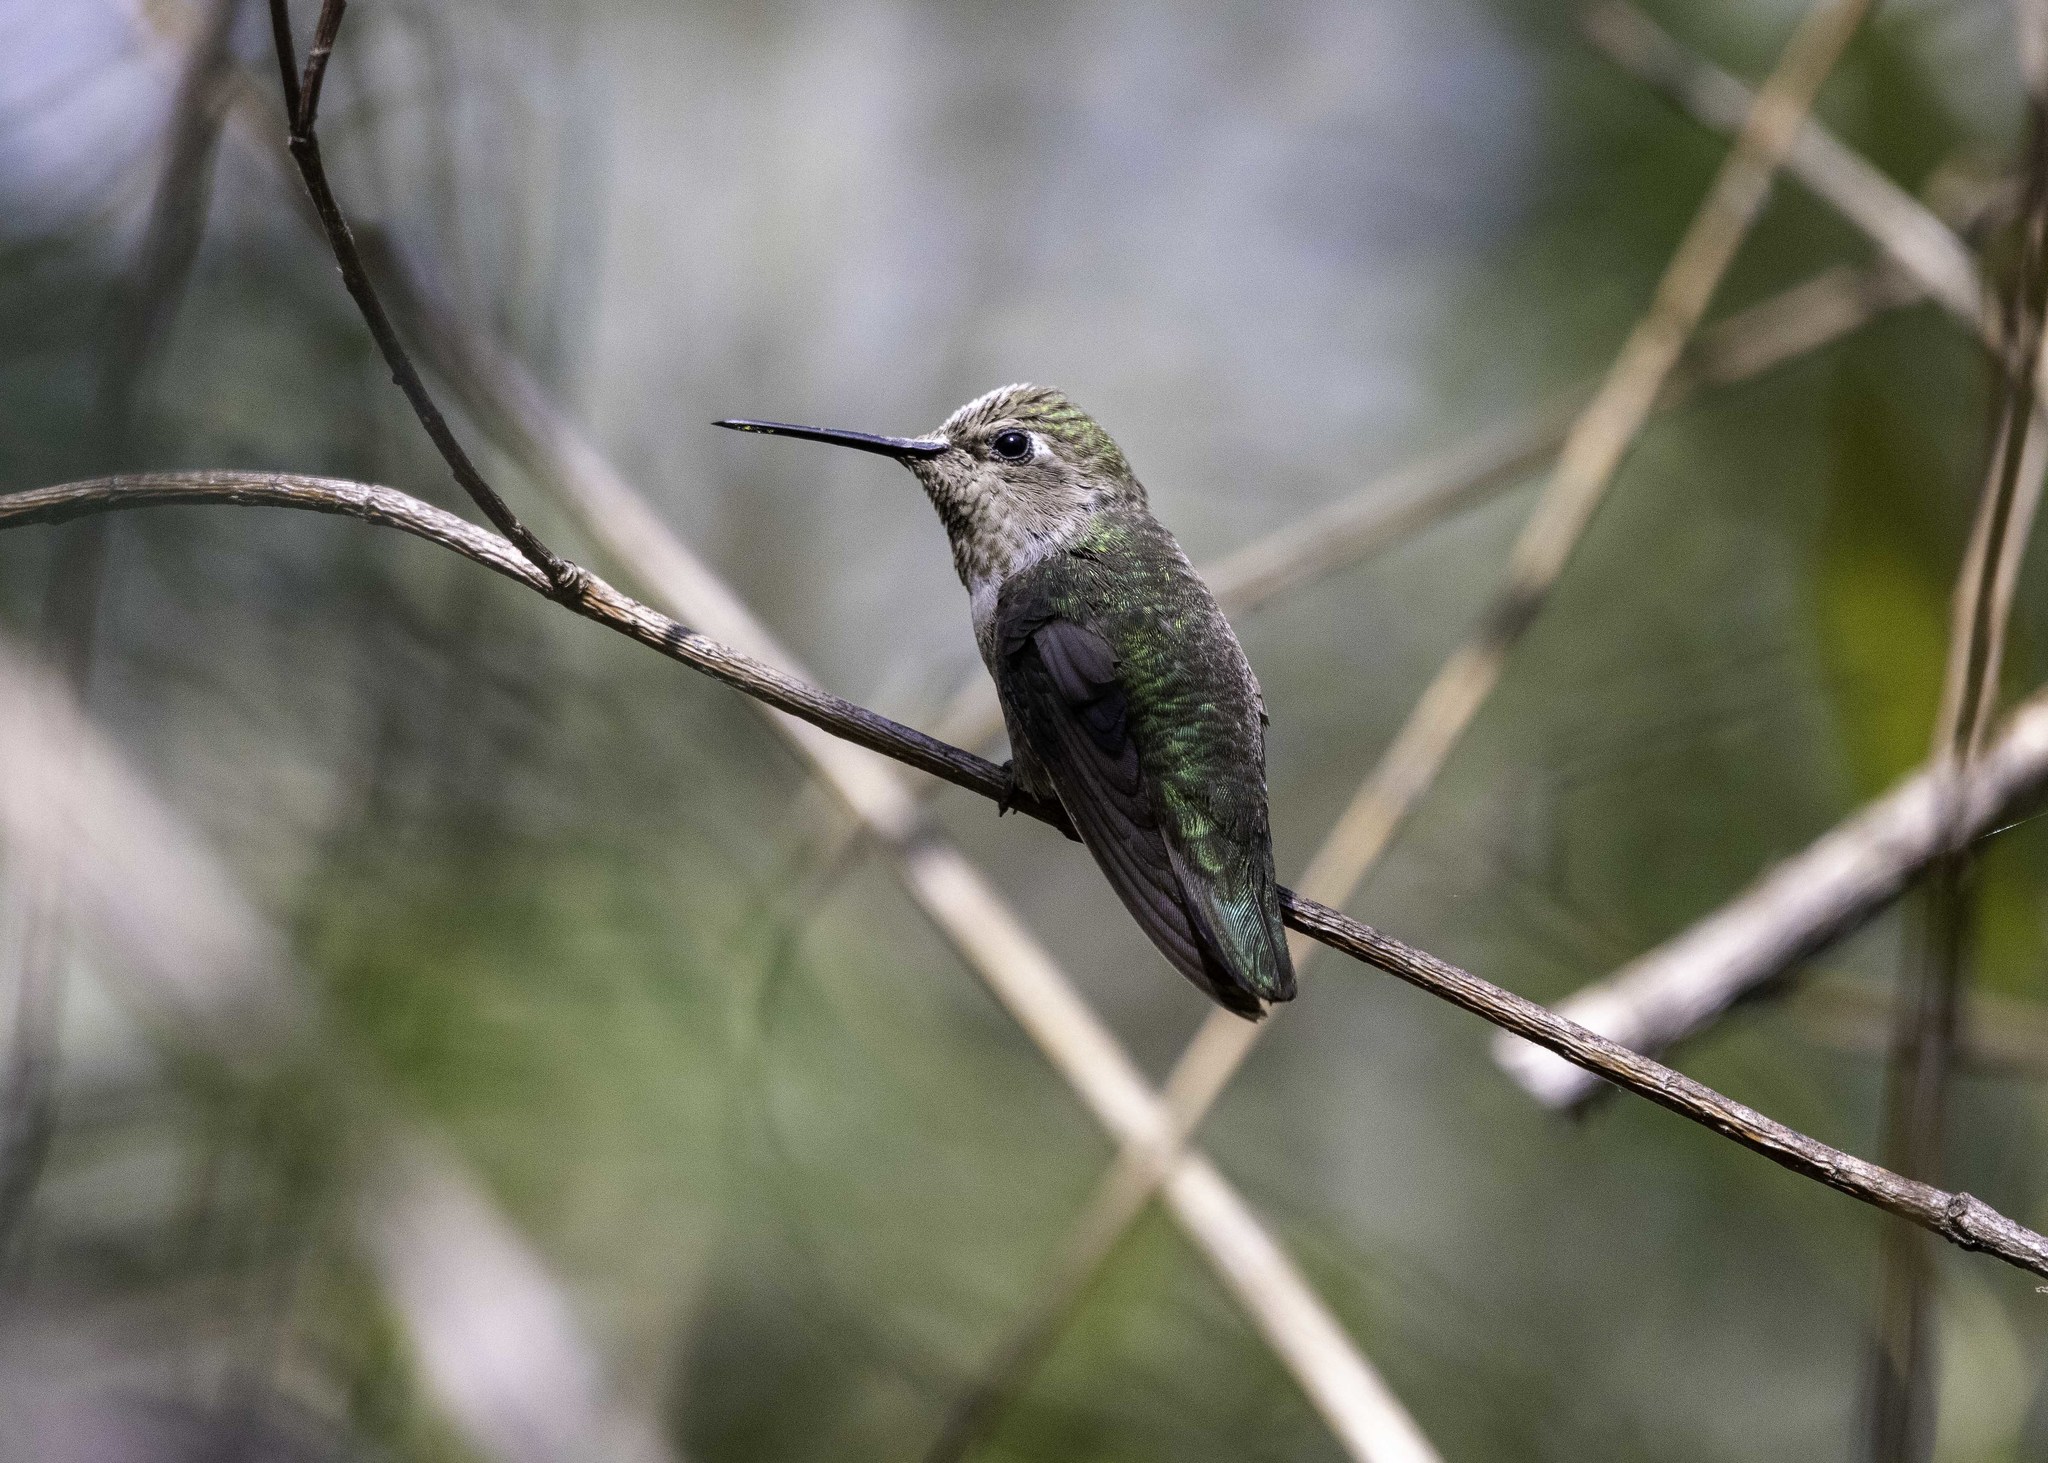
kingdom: Animalia
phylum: Chordata
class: Aves
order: Apodiformes
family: Trochilidae
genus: Calypte
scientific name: Calypte anna
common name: Anna's hummingbird
